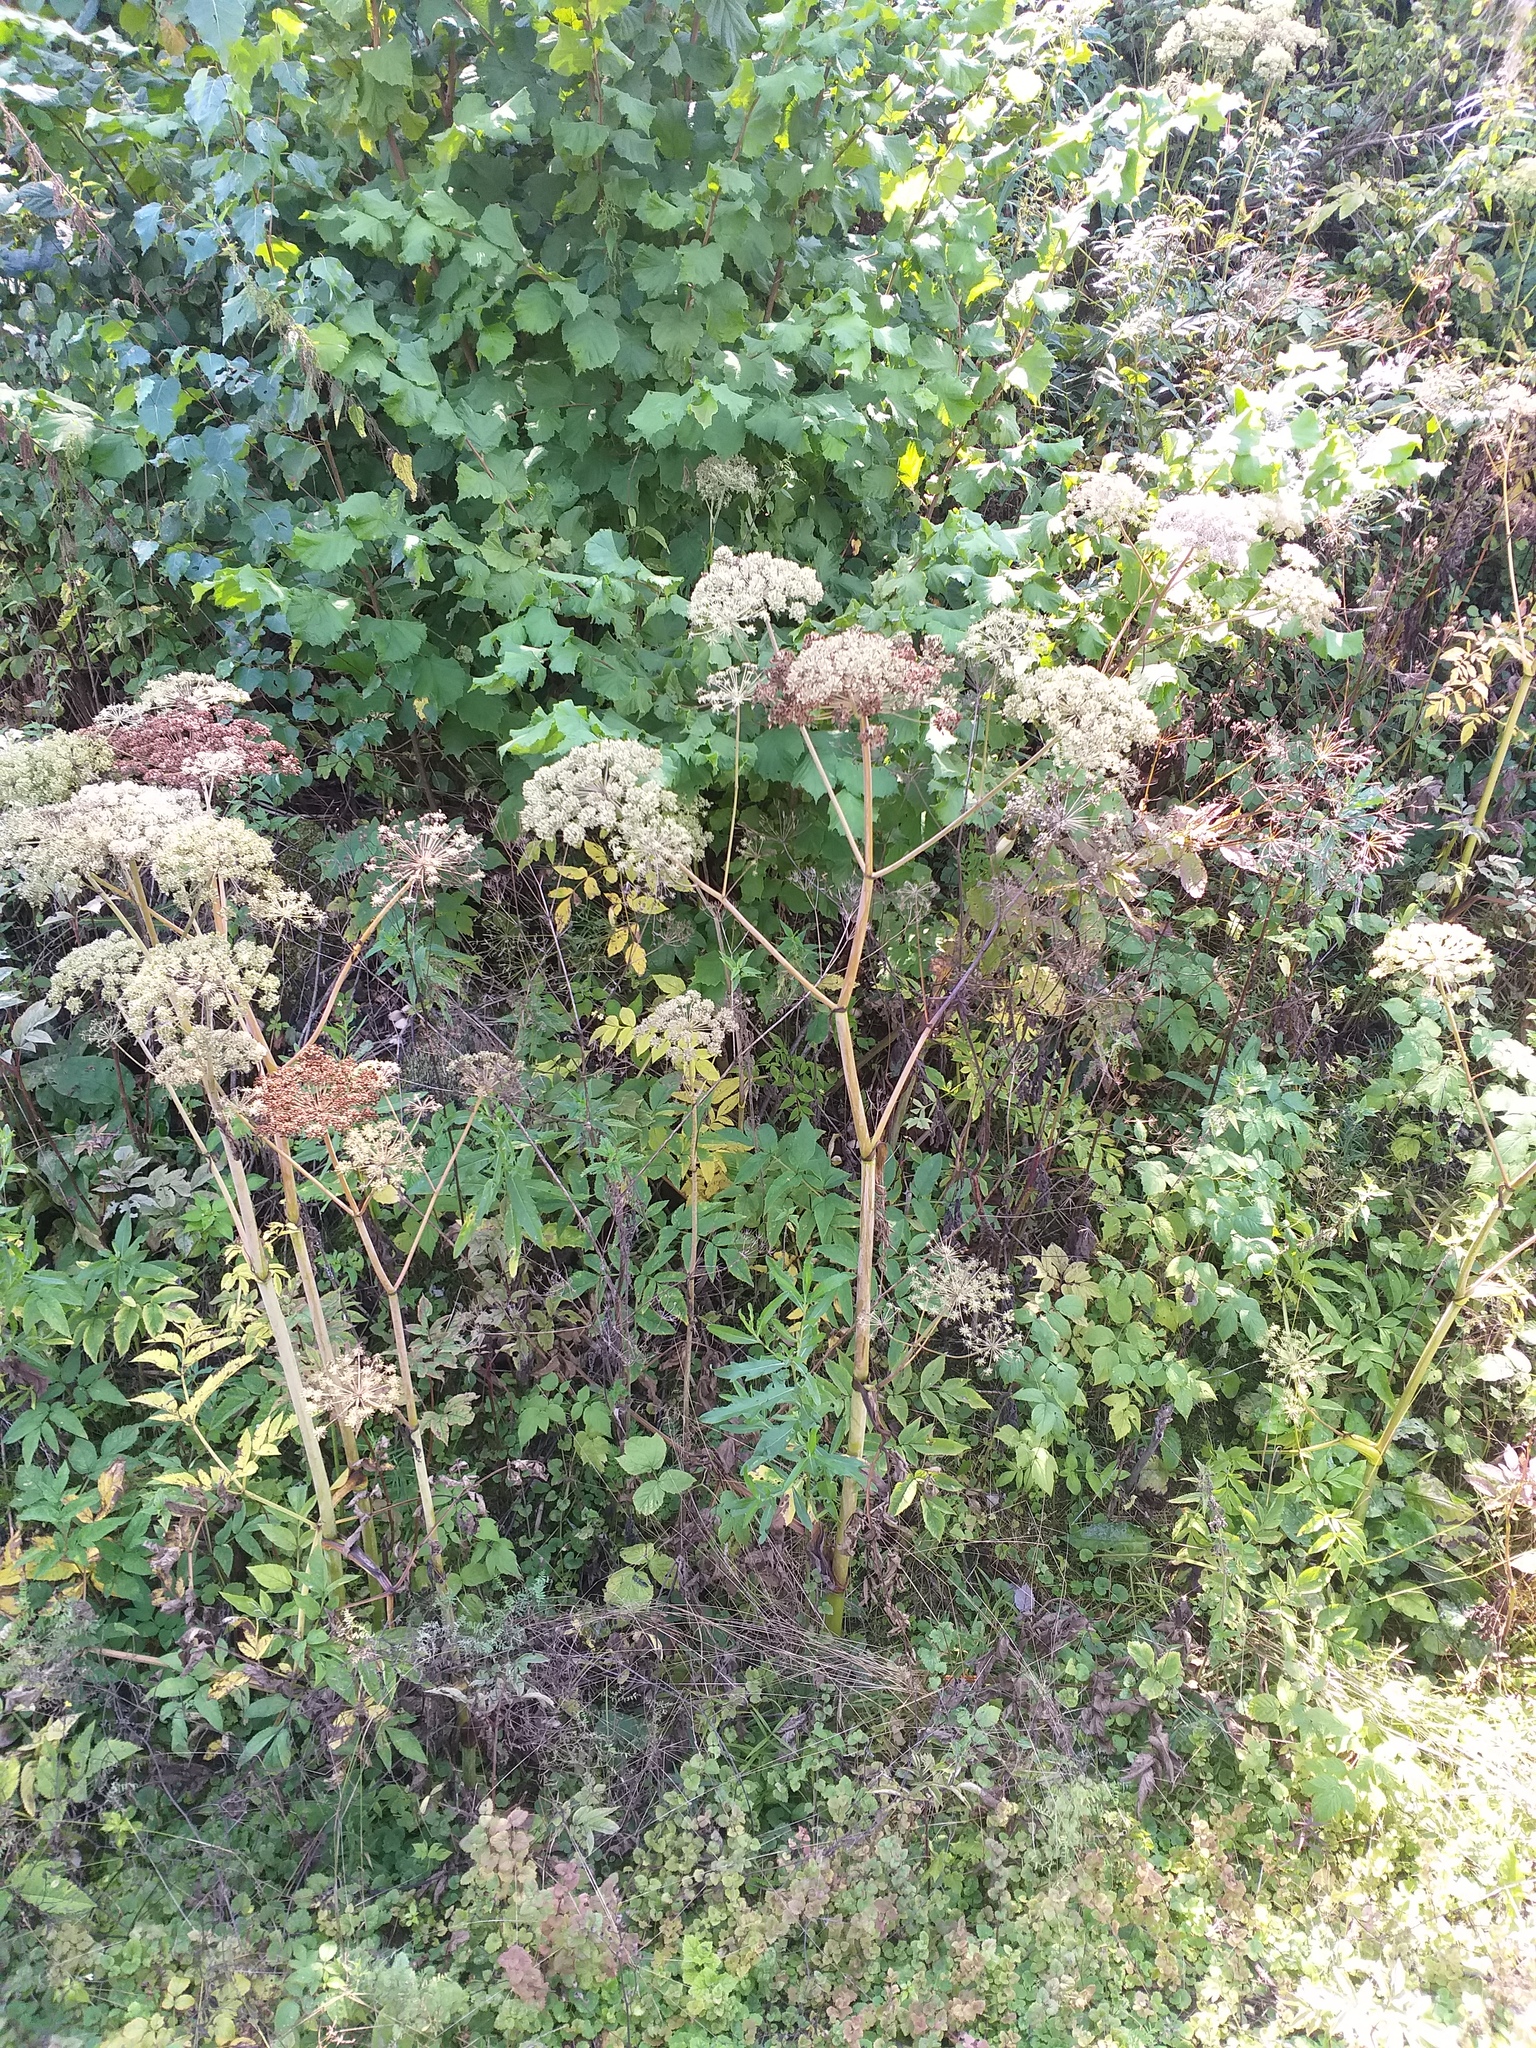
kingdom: Plantae
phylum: Tracheophyta
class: Magnoliopsida
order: Apiales
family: Apiaceae
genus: Angelica
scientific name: Angelica sylvestris
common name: Wild angelica
